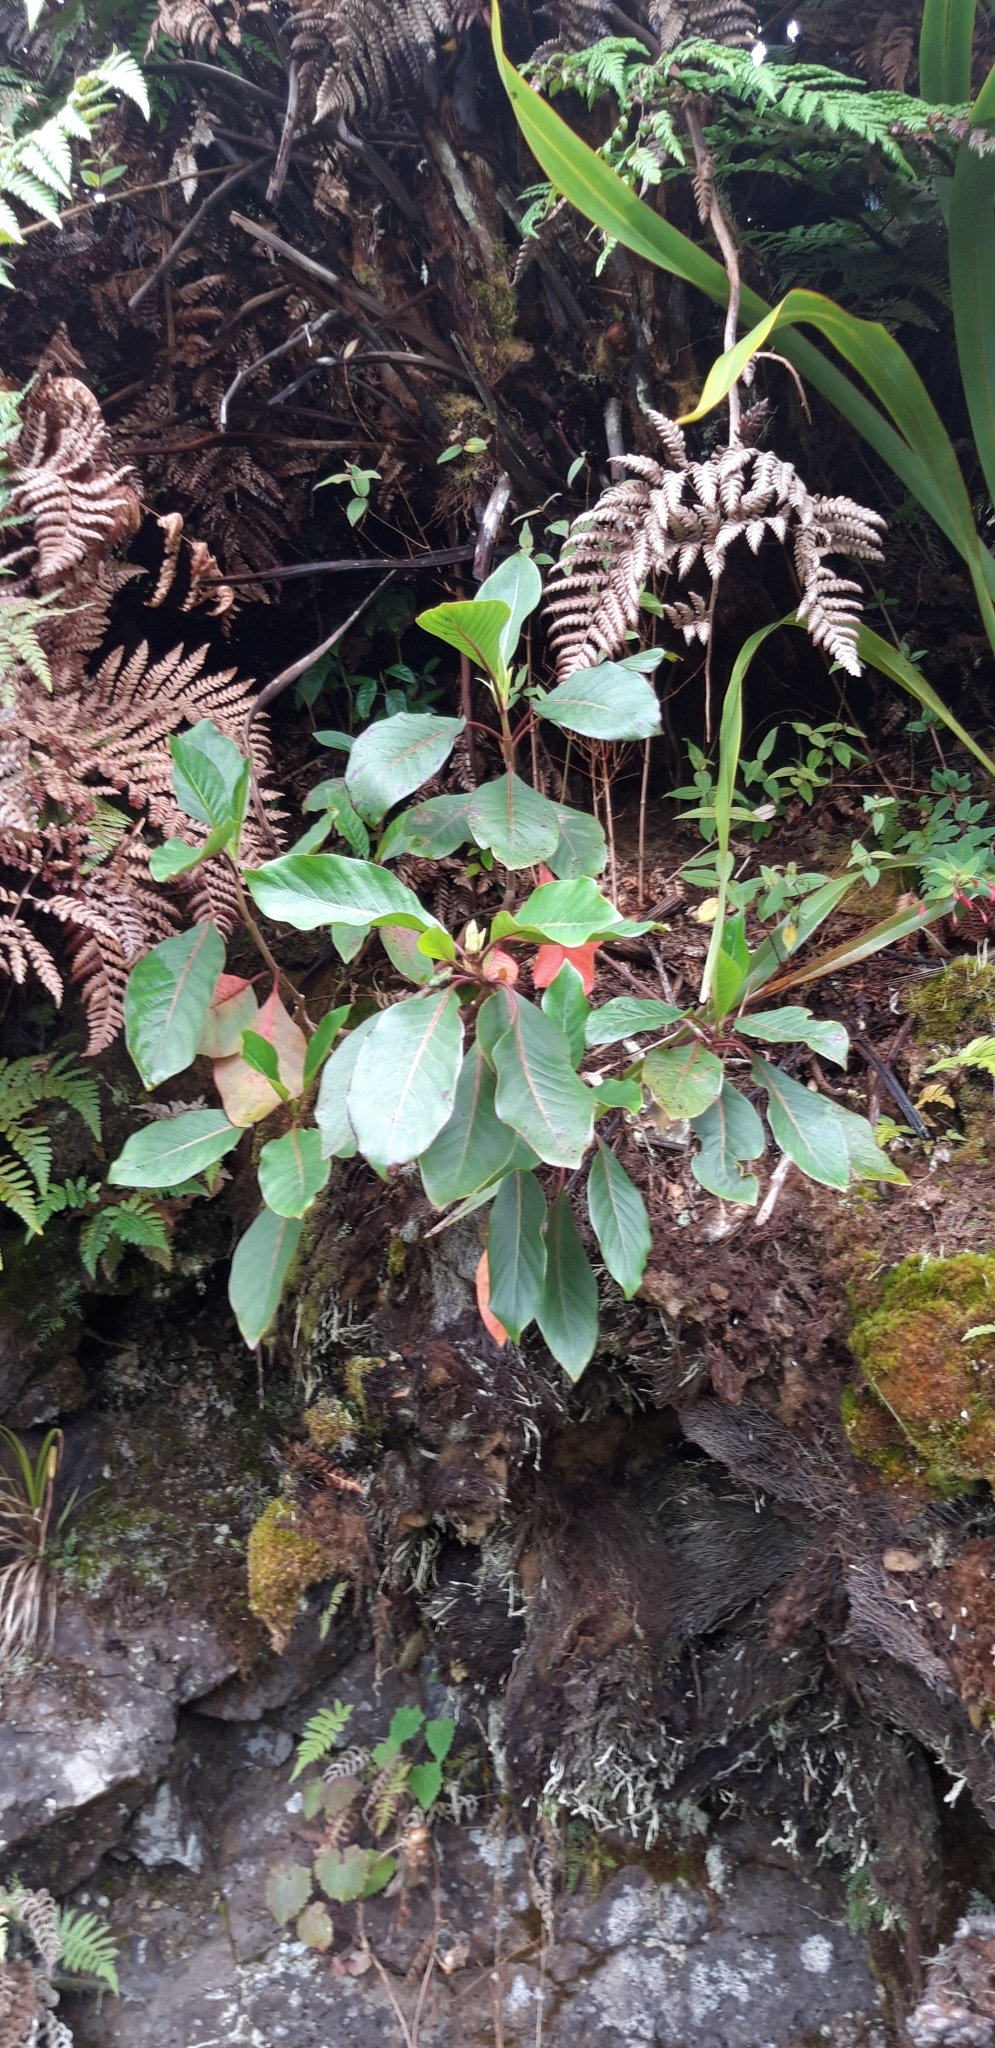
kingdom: Plantae
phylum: Tracheophyta
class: Magnoliopsida
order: Gentianales
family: Rubiaceae
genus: Cinchona
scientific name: Cinchona officinalis
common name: Lojabark
